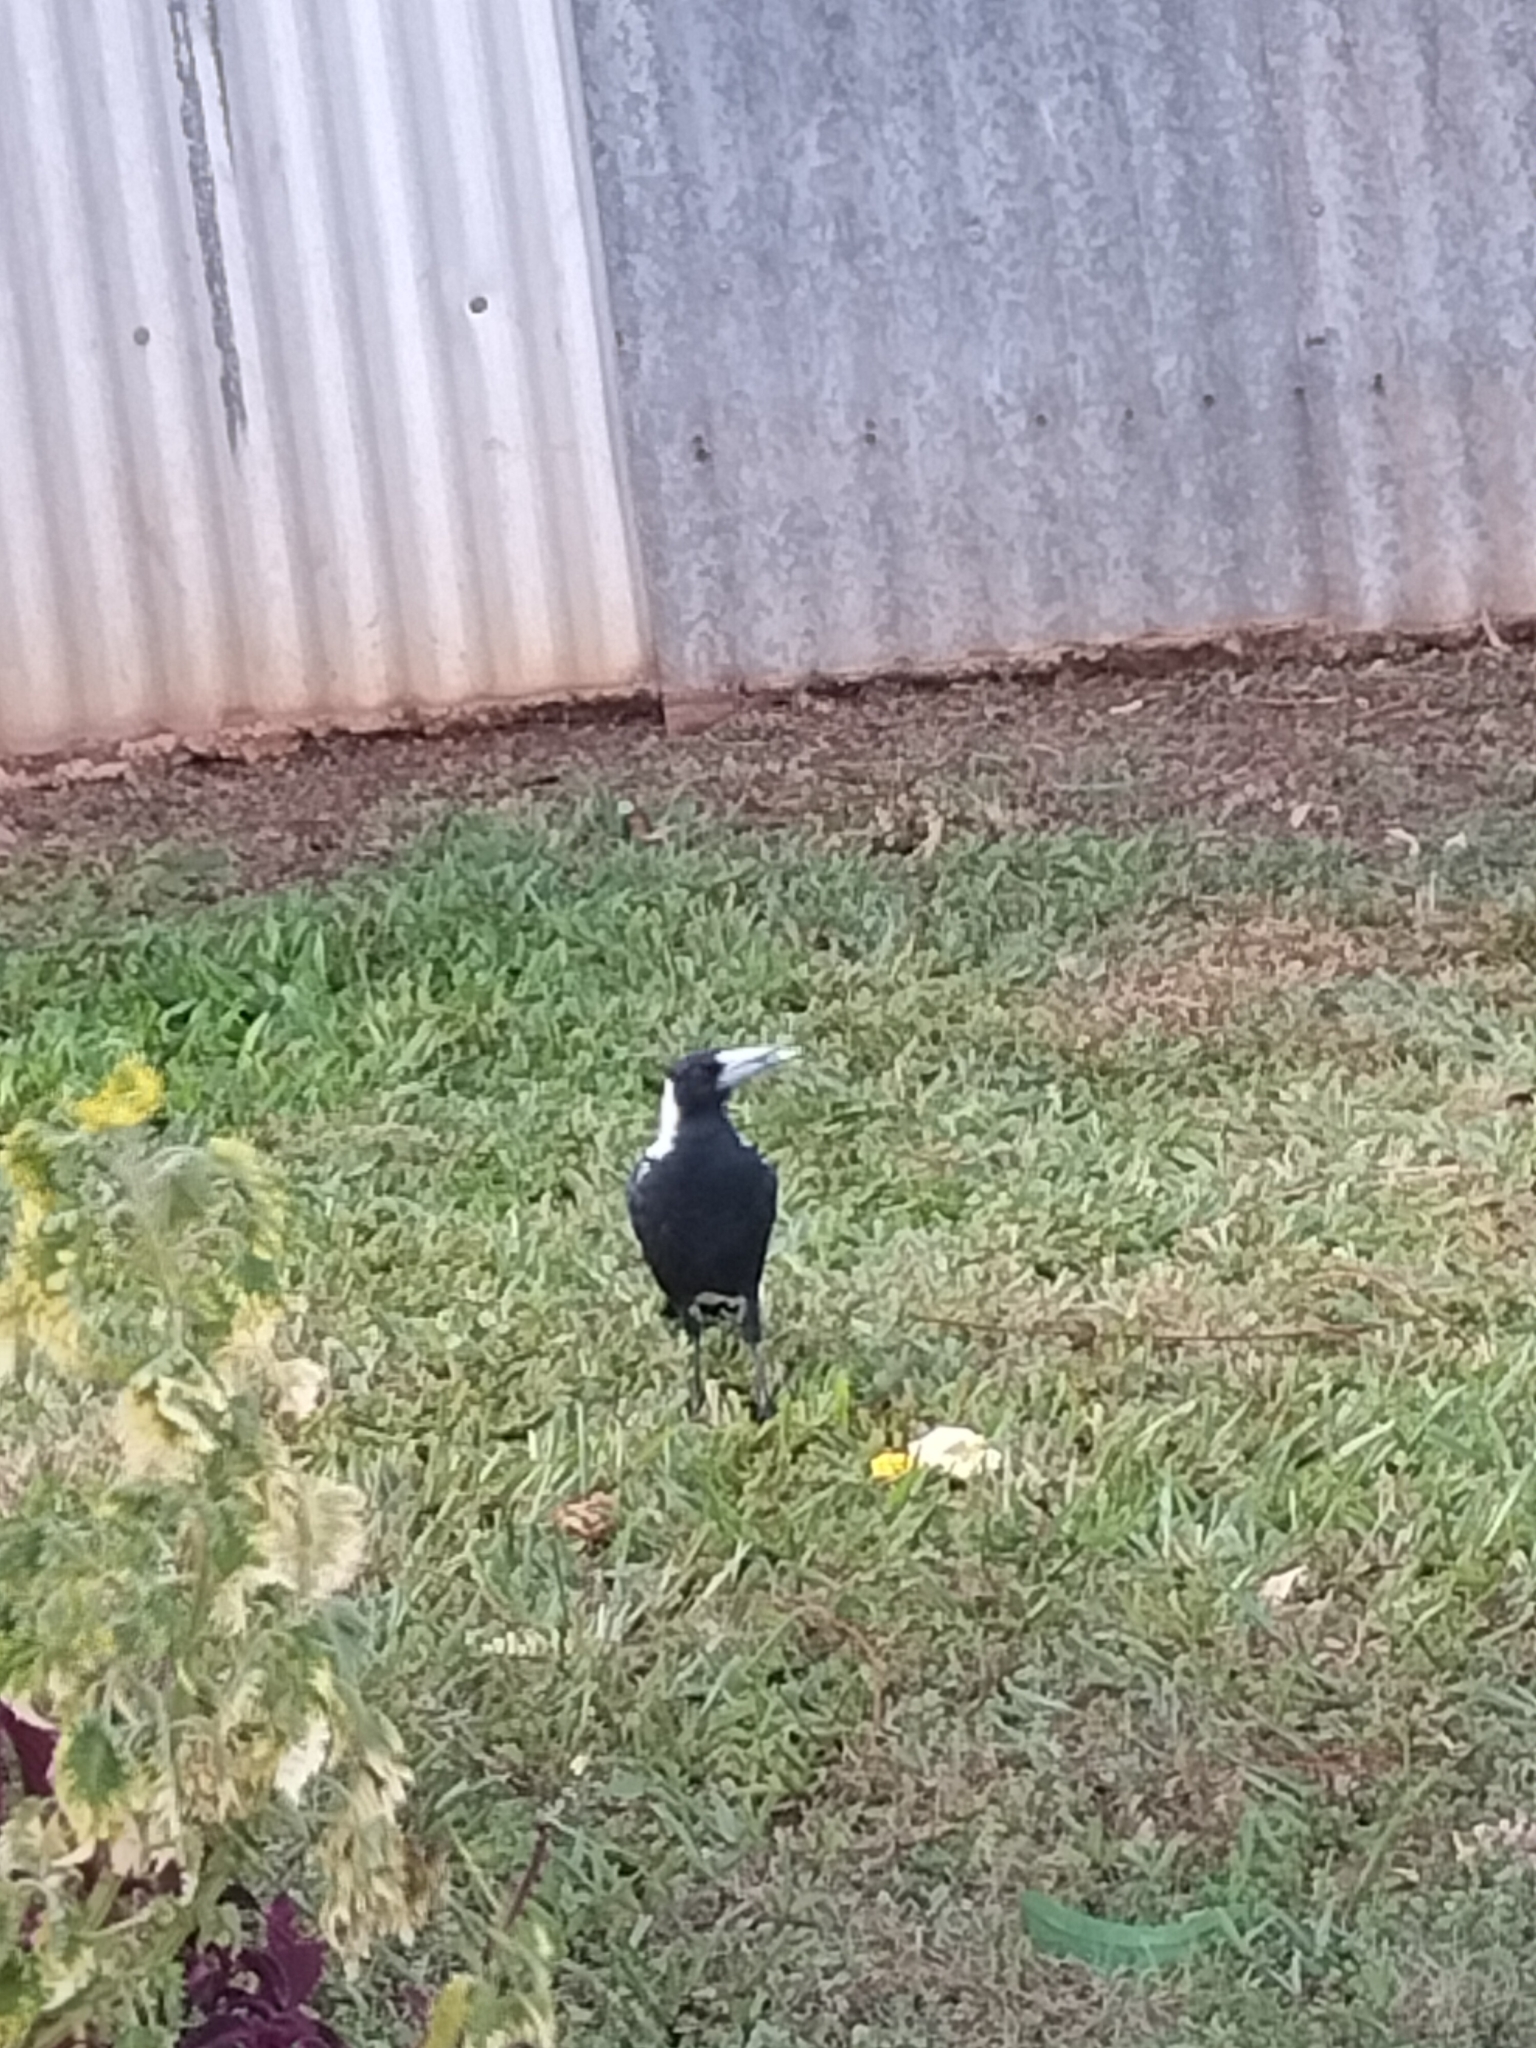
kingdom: Animalia
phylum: Chordata
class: Aves
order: Passeriformes
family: Cracticidae
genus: Gymnorhina
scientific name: Gymnorhina tibicen
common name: Australian magpie
